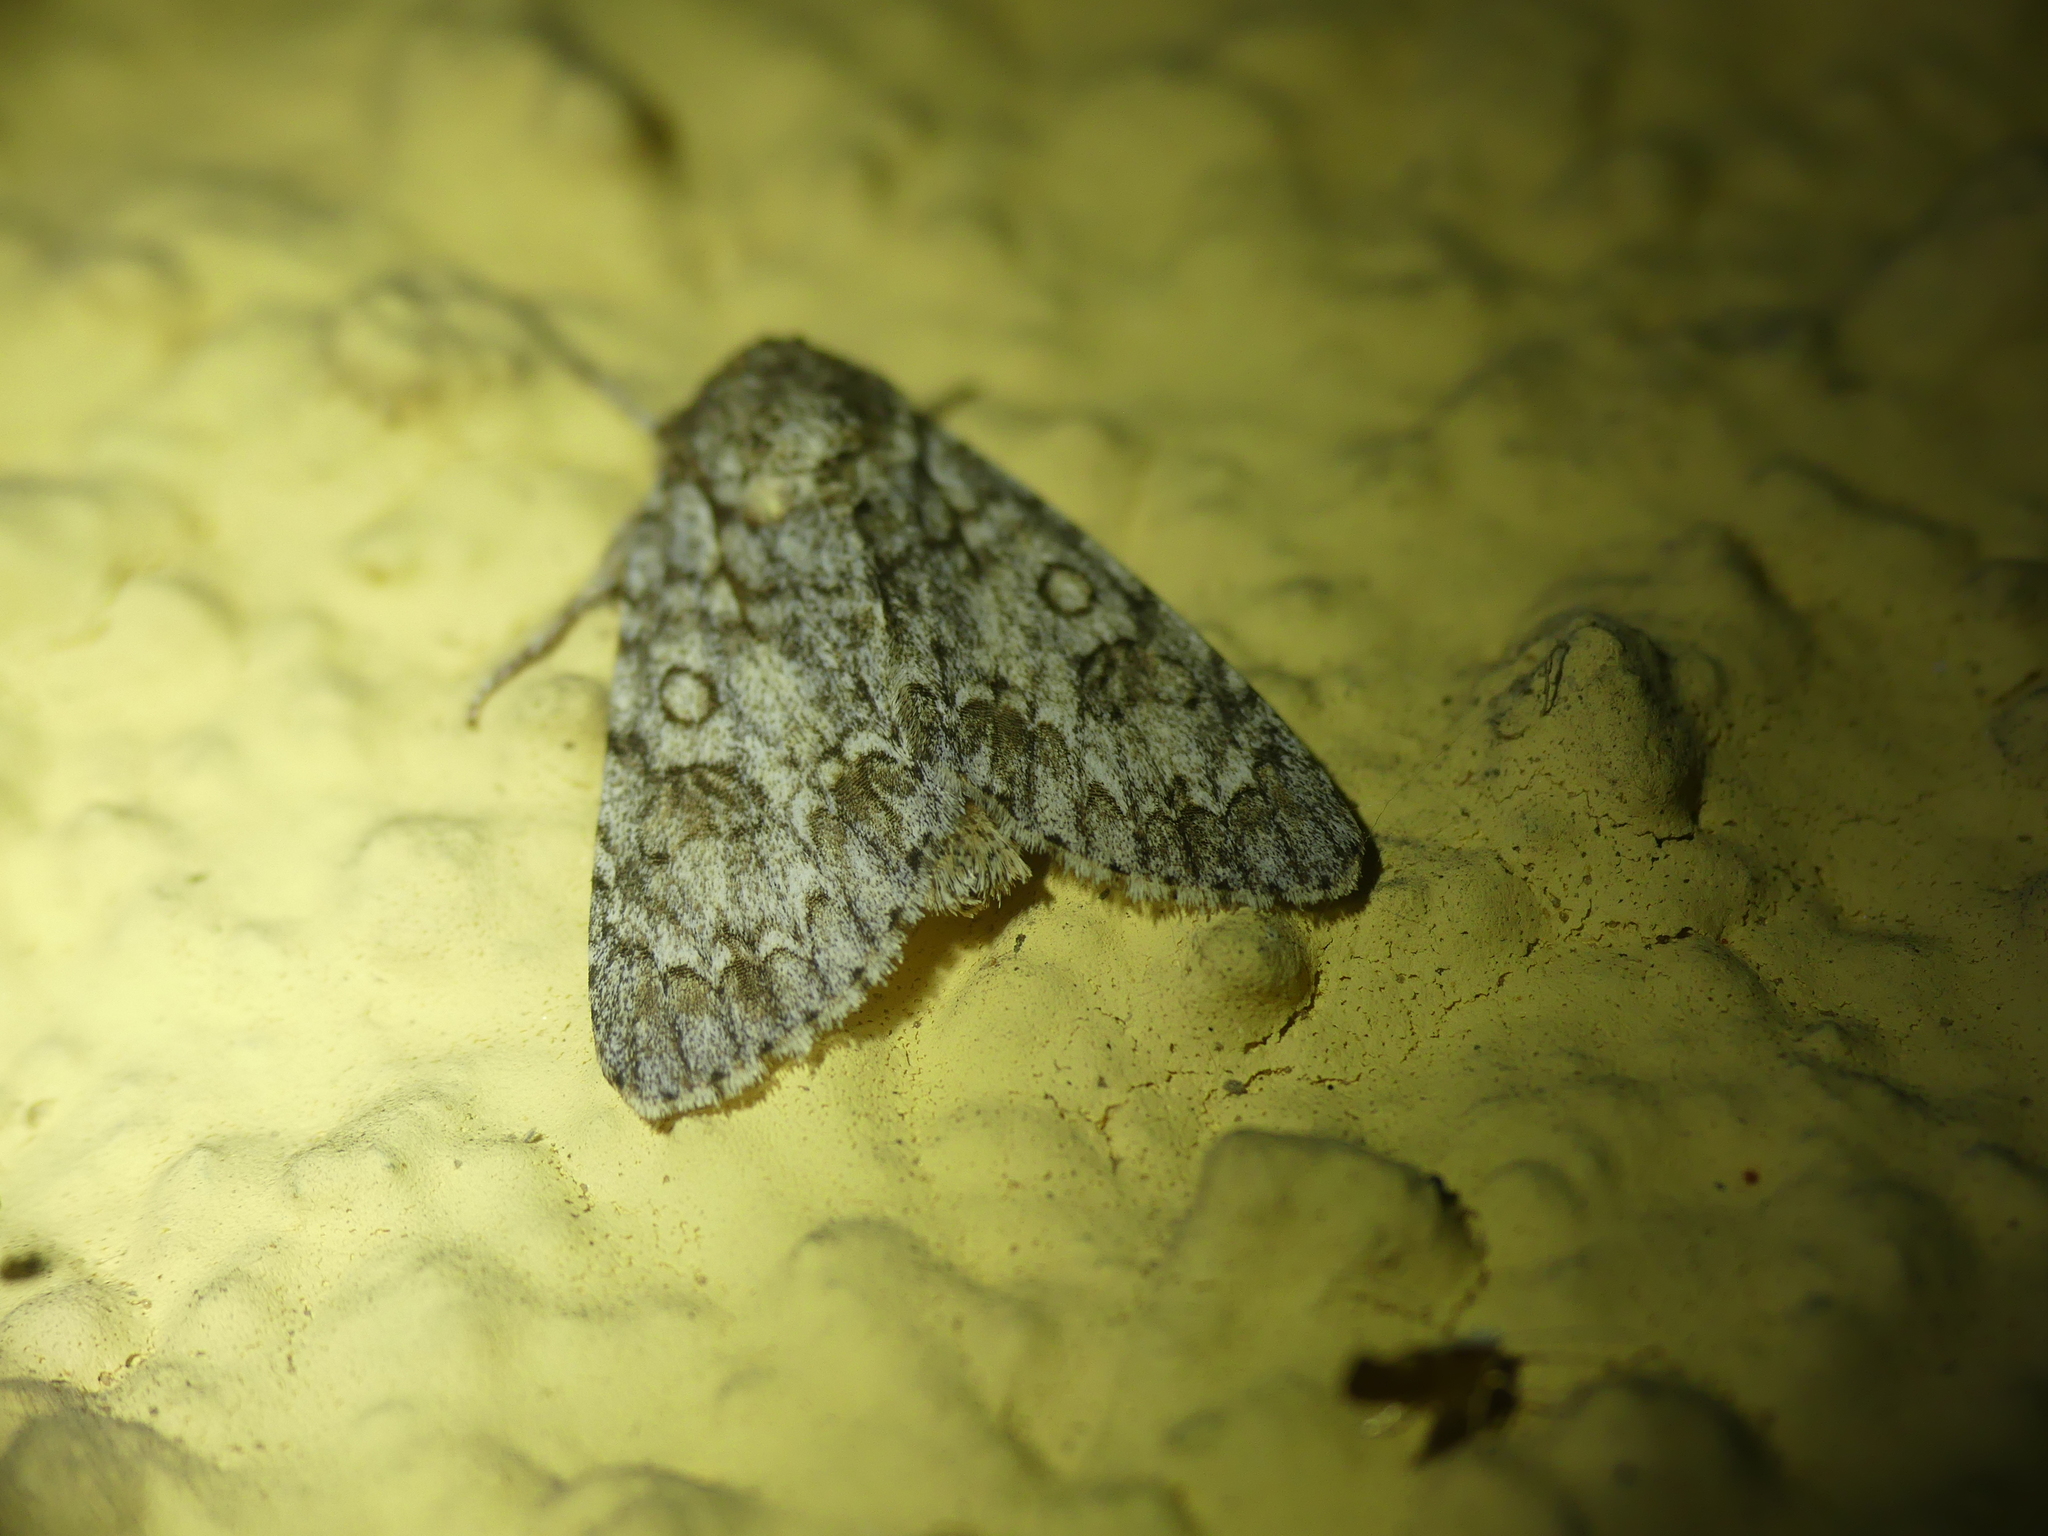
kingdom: Animalia
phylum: Arthropoda
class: Insecta
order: Lepidoptera
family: Noctuidae
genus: Acronicta
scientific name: Acronicta aceris
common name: Sycamore
